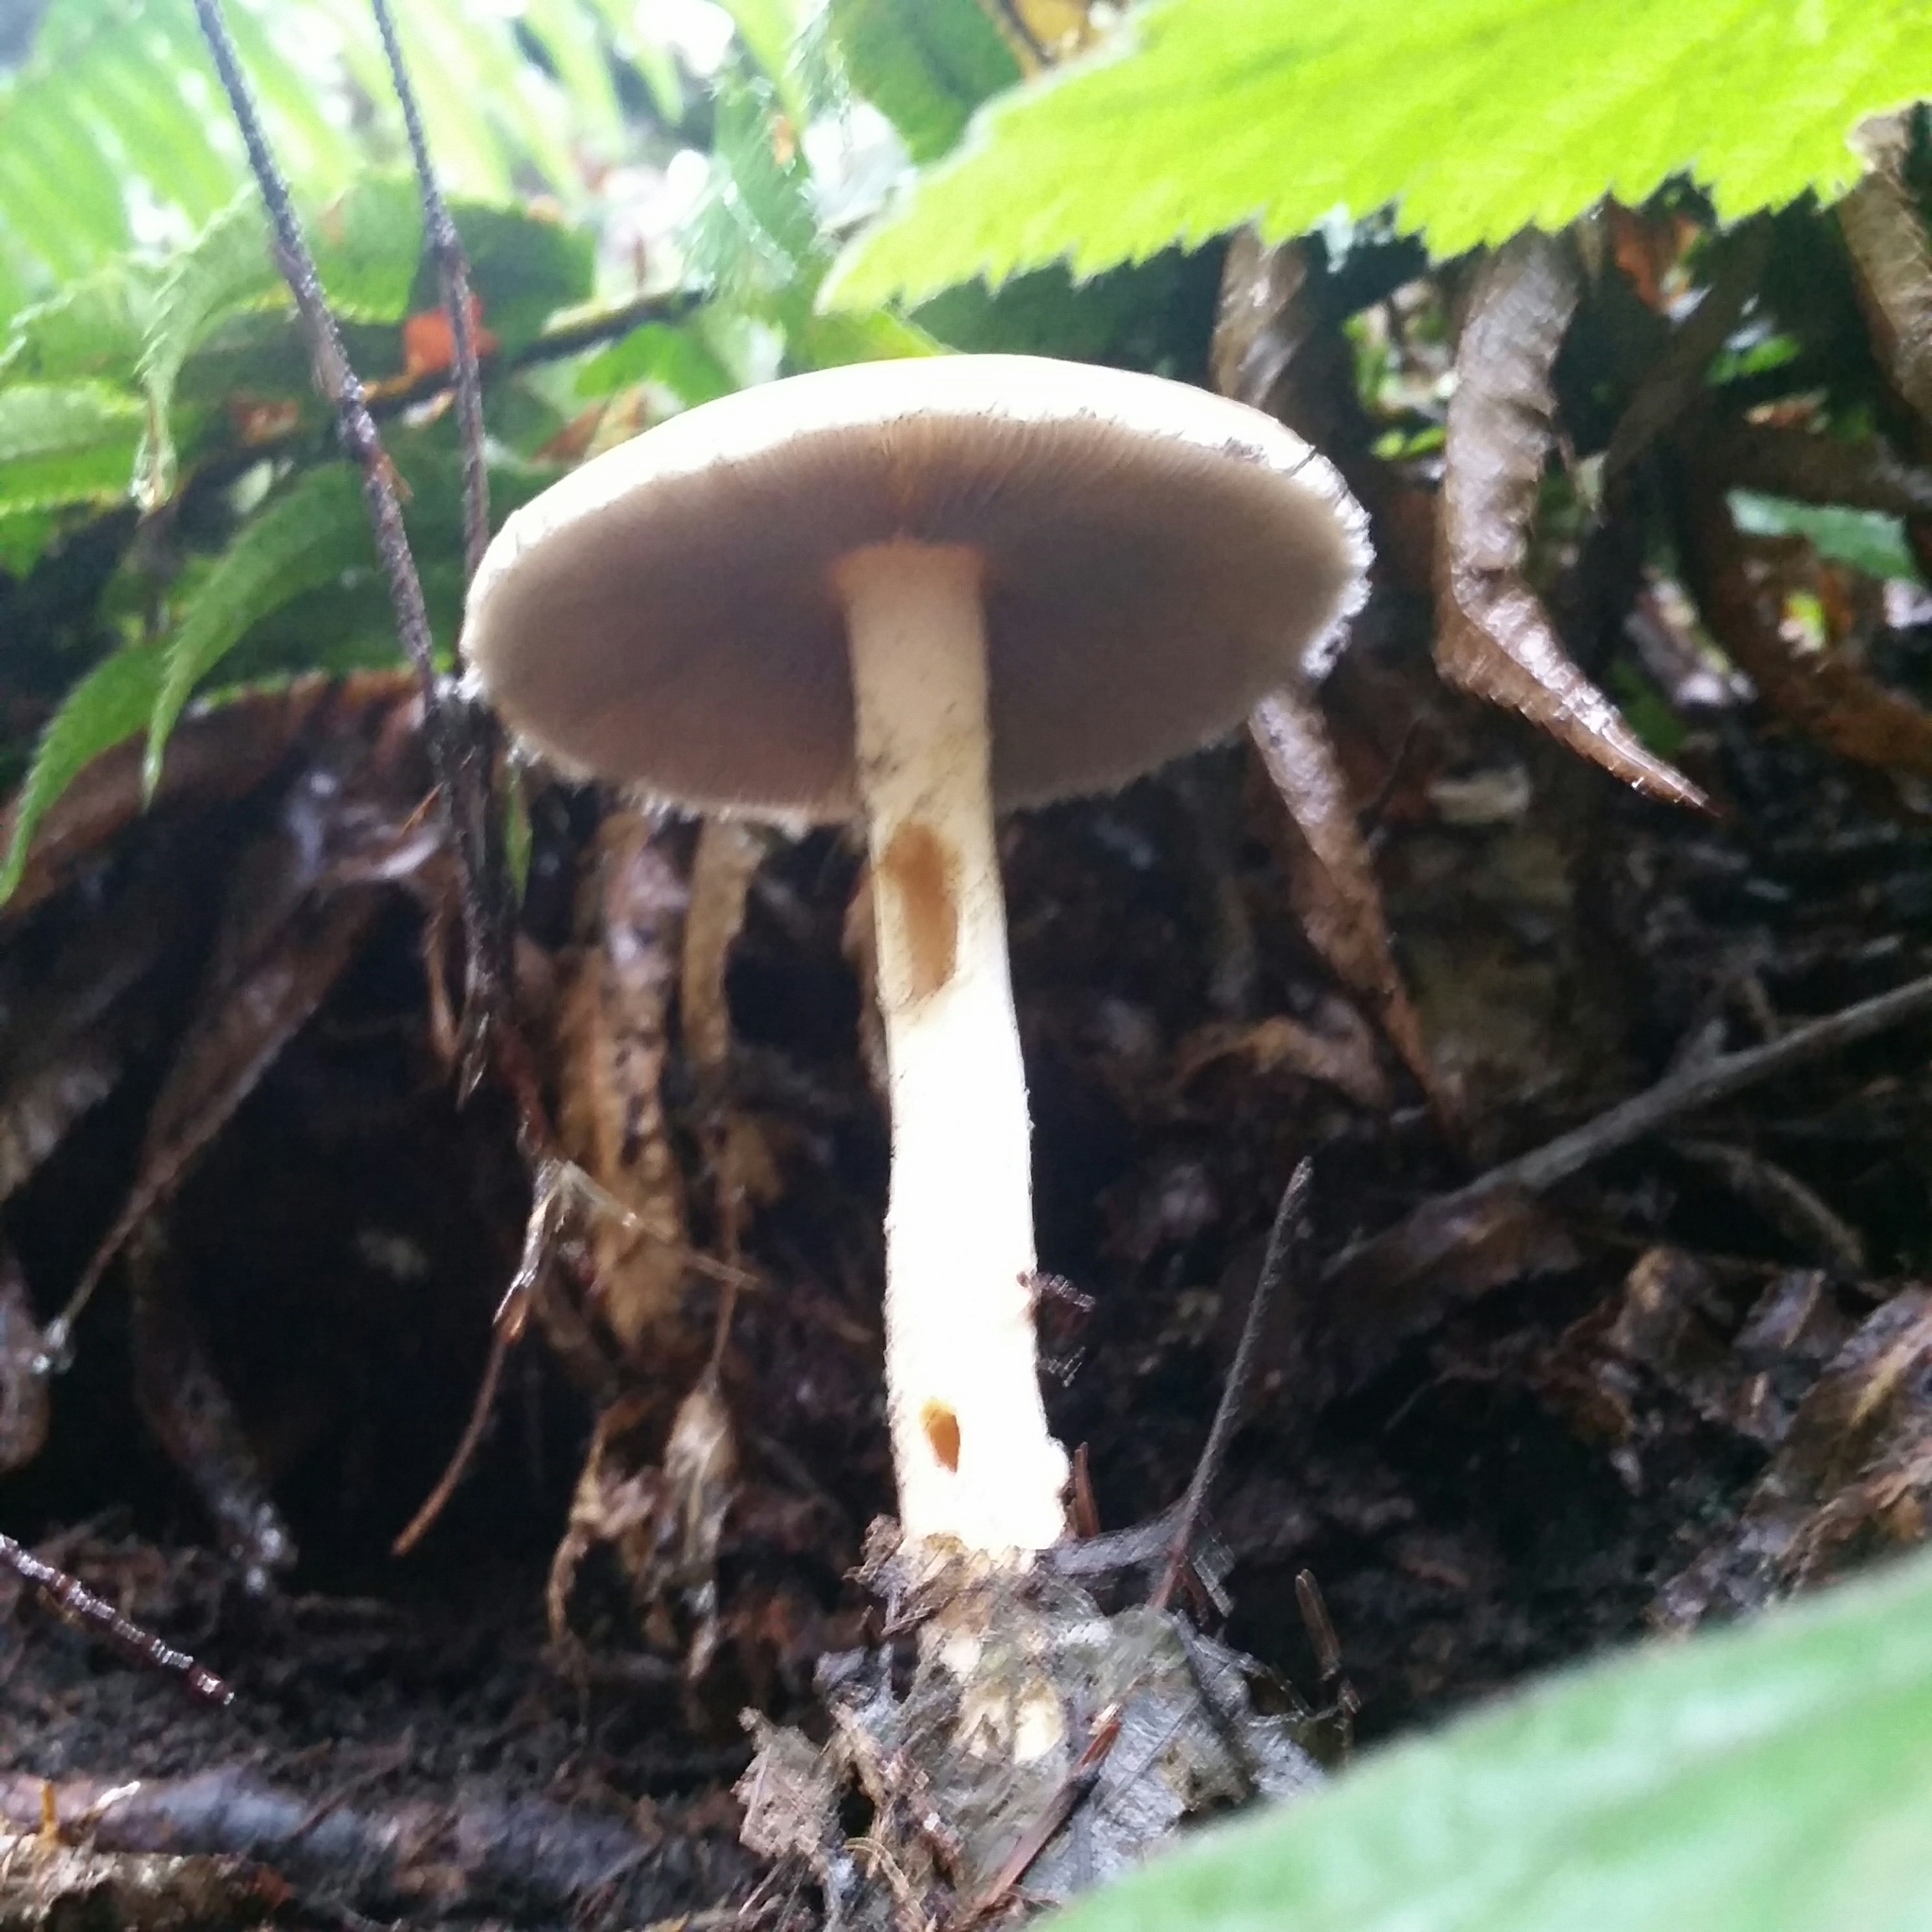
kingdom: Fungi
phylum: Basidiomycota
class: Agaricomycetes
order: Agaricales
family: Strophariaceae
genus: Stropharia
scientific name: Stropharia ambigua
